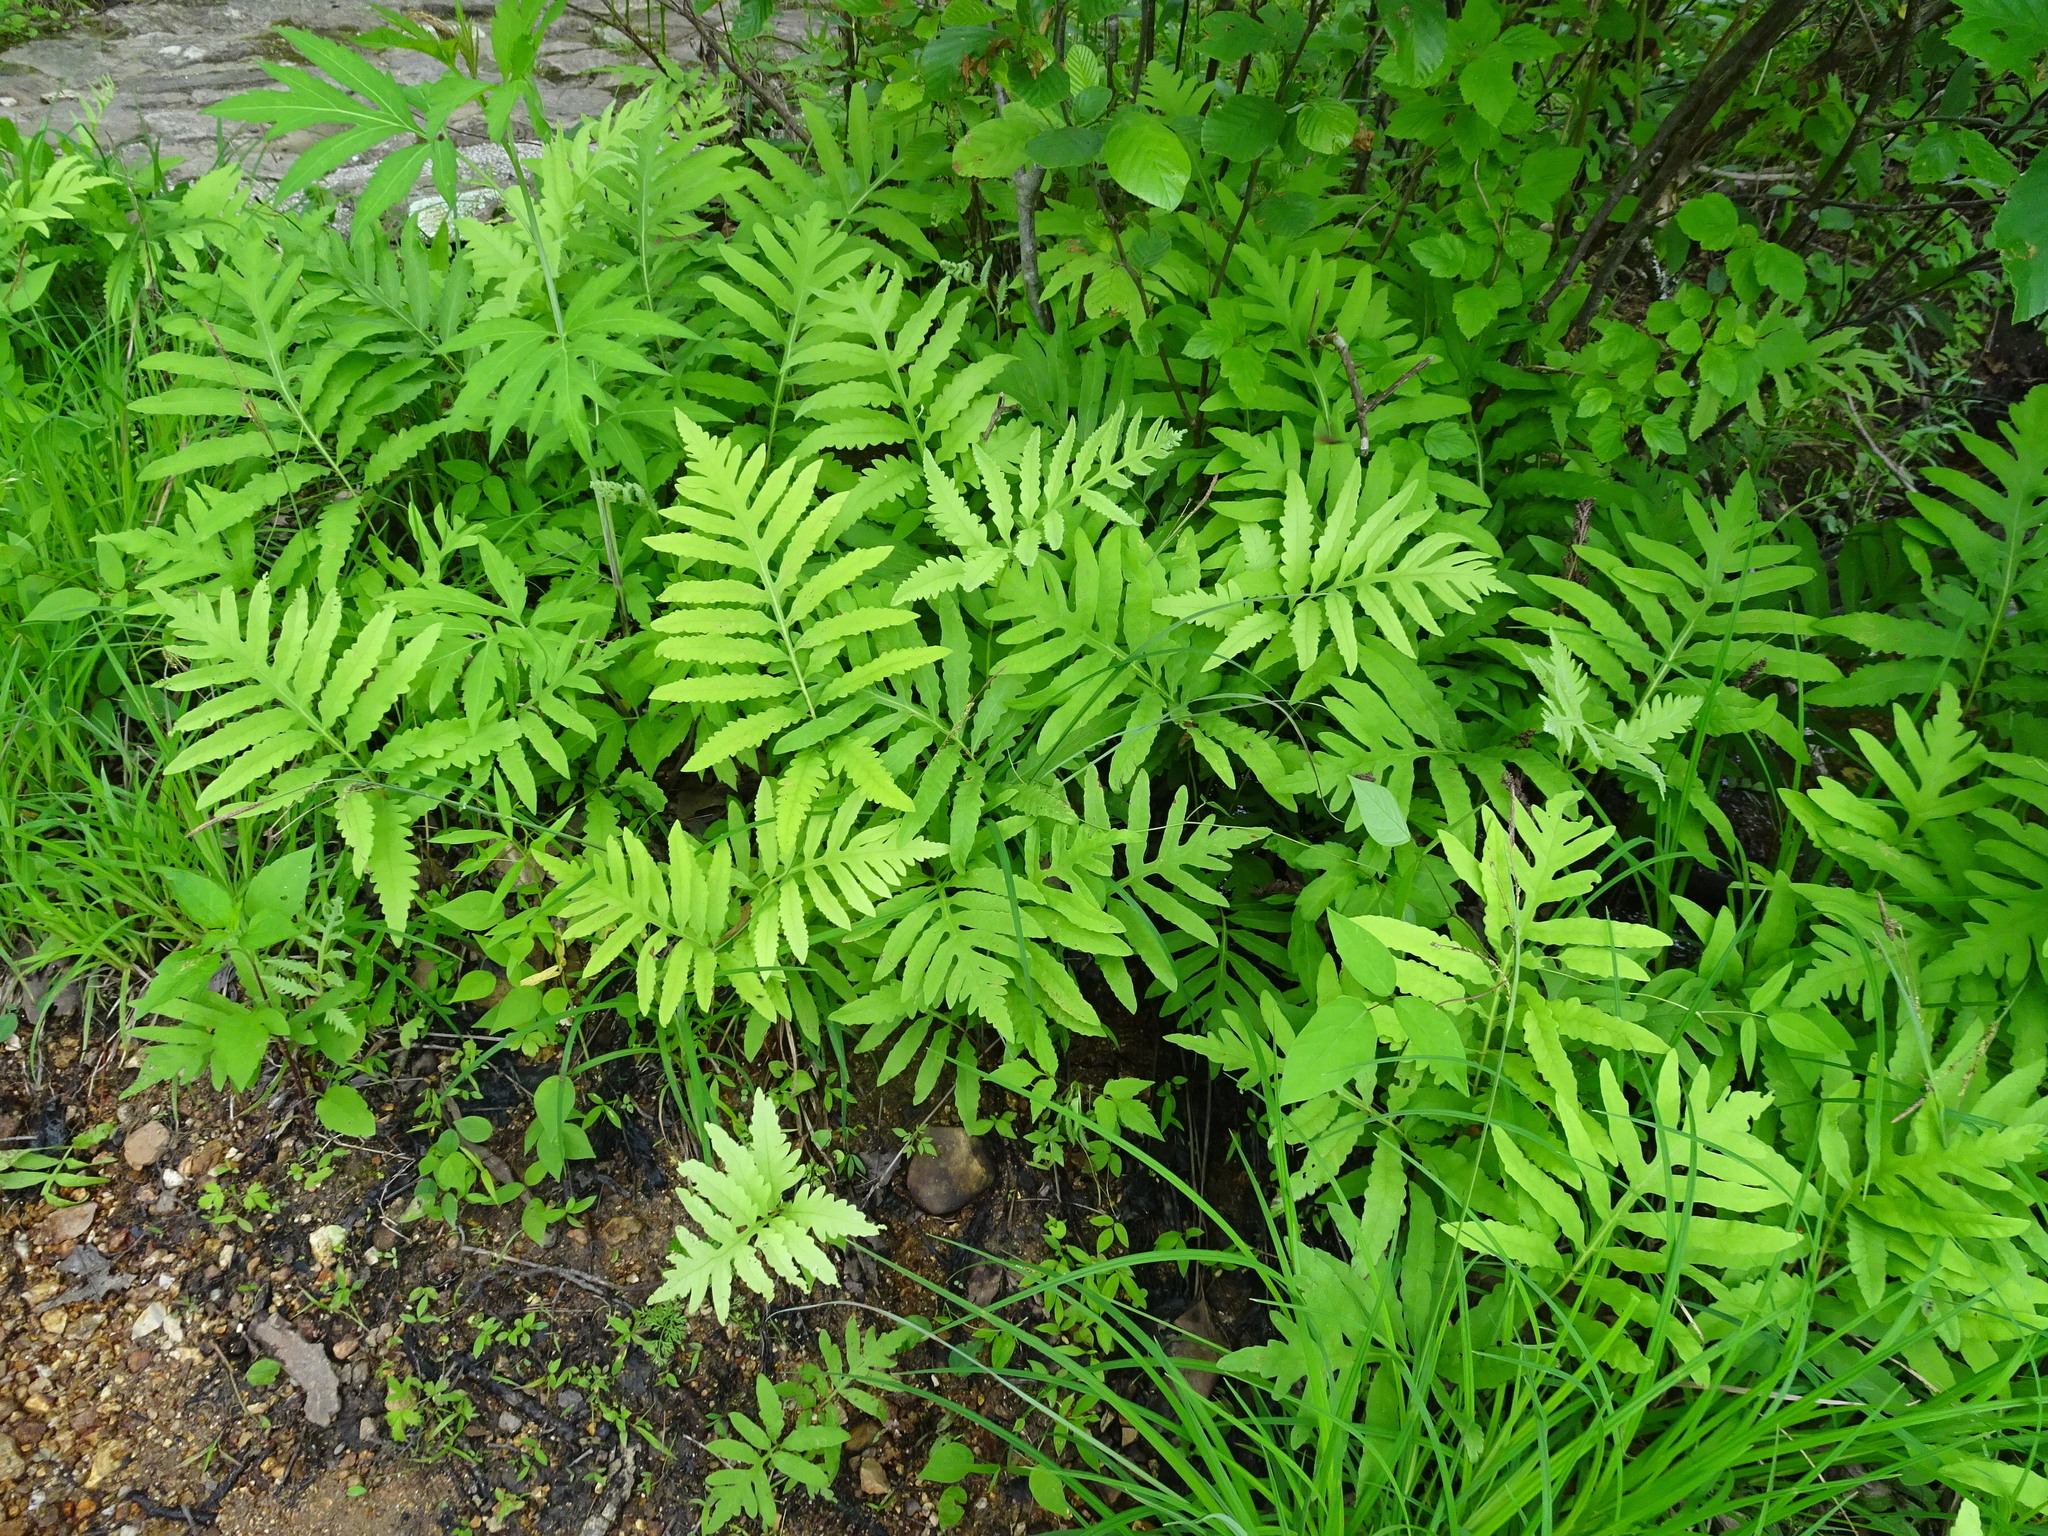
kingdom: Plantae
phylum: Tracheophyta
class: Polypodiopsida
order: Polypodiales
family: Onocleaceae
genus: Onoclea
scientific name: Onoclea sensibilis
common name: Sensitive fern
